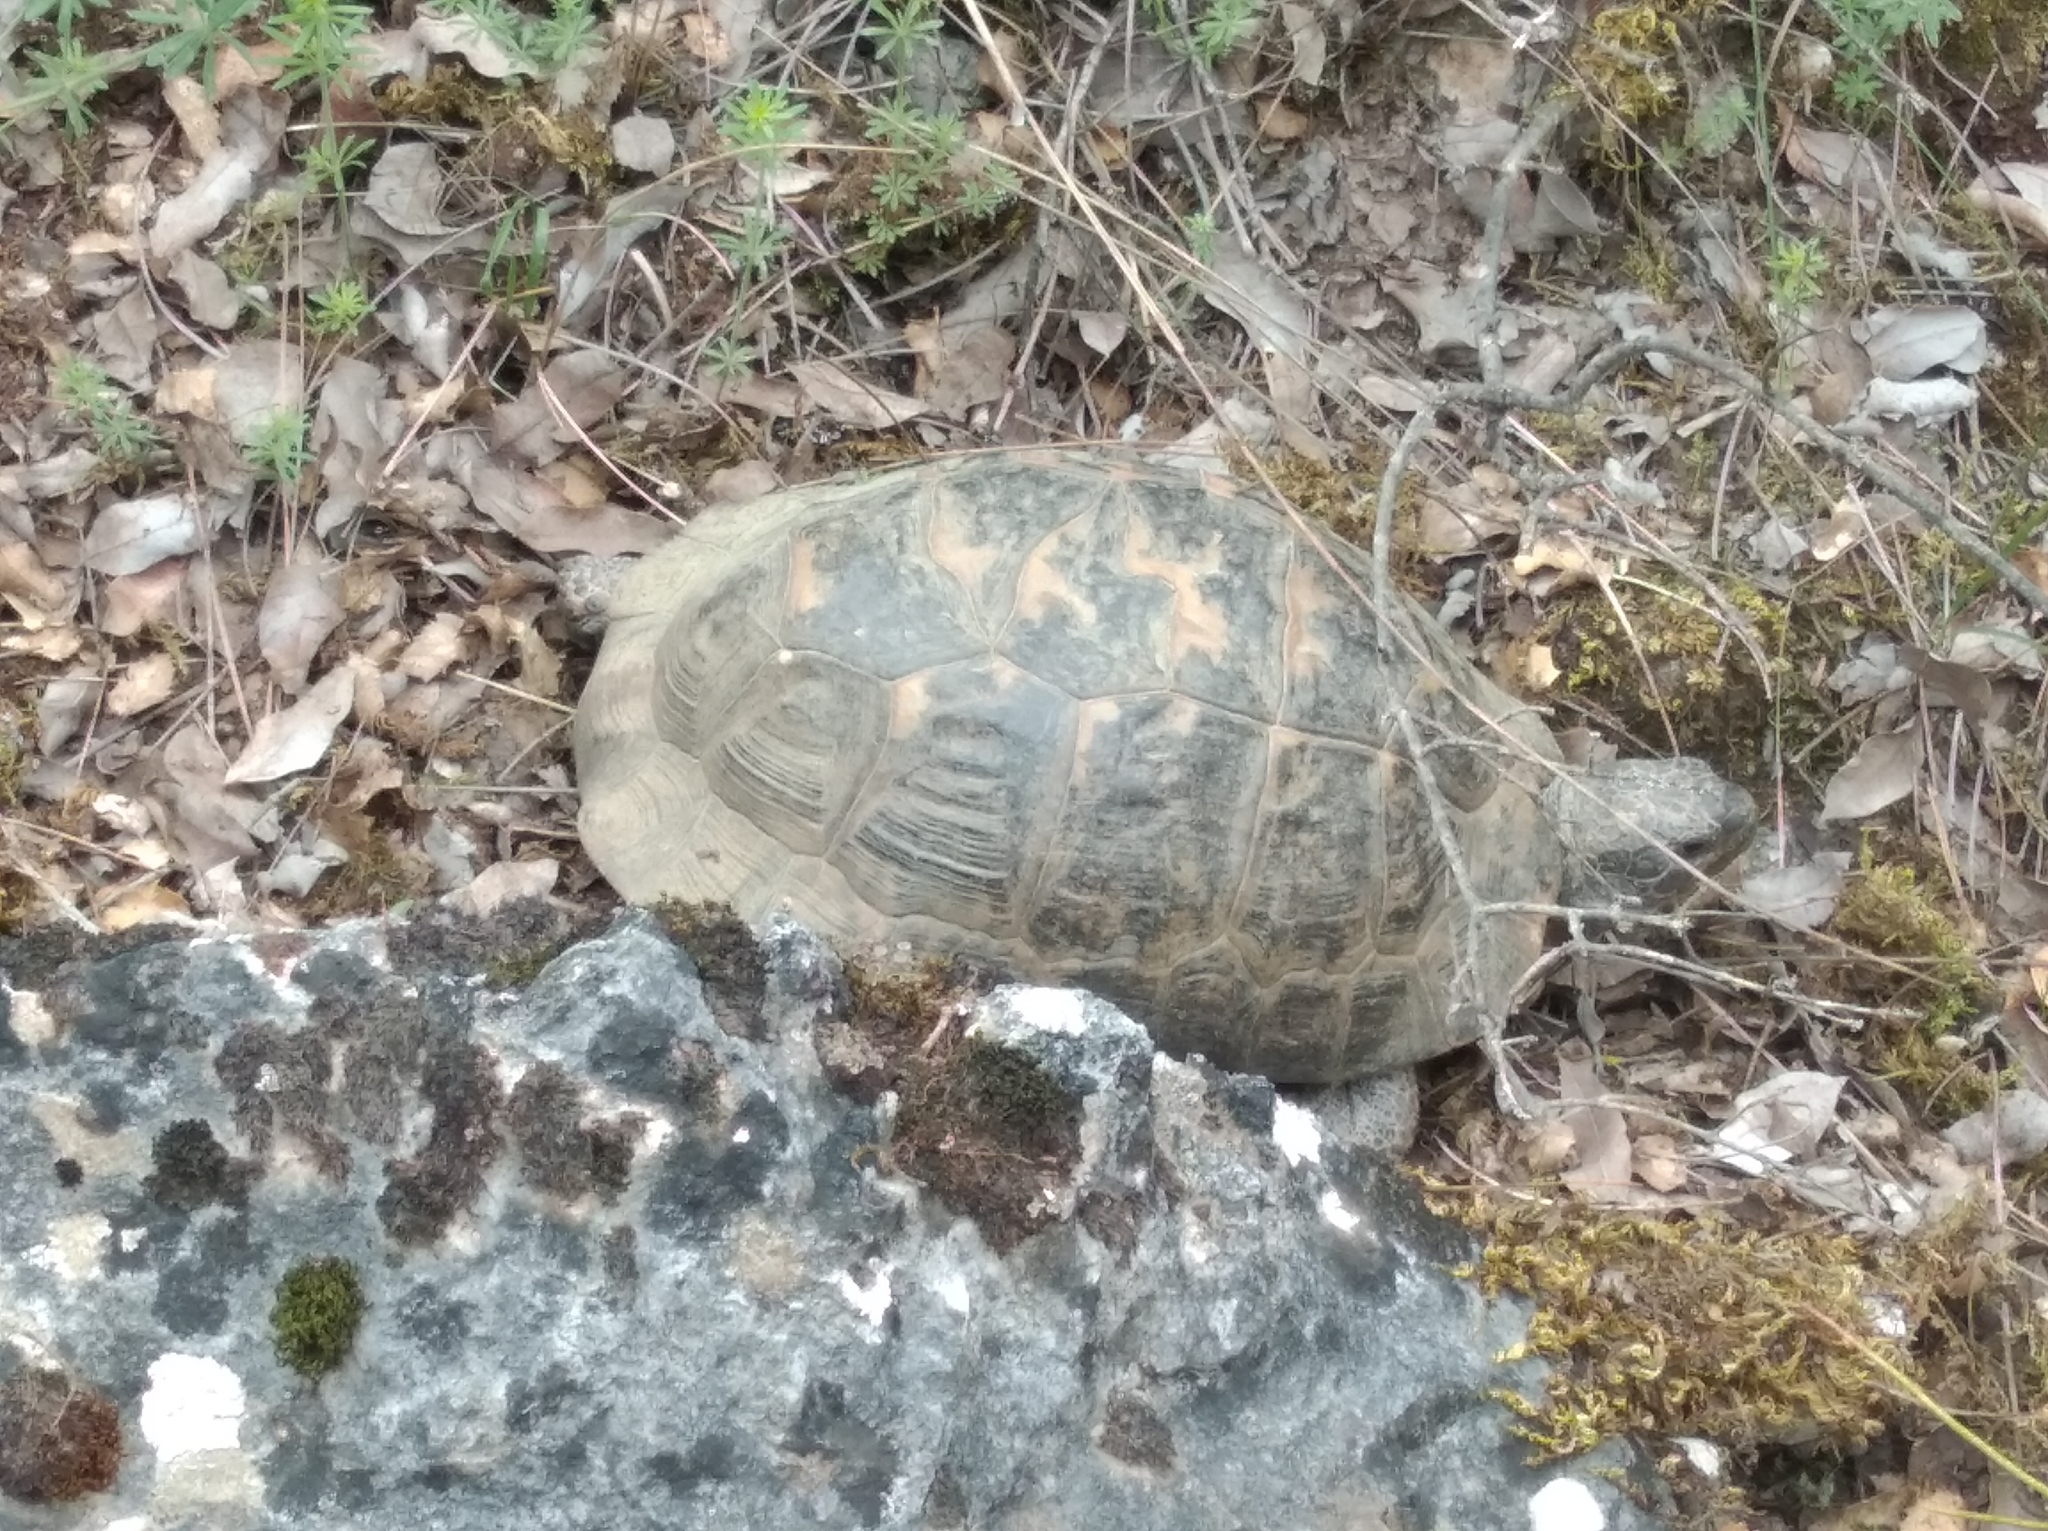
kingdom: Animalia
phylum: Chordata
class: Testudines
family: Testudinidae
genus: Testudo
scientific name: Testudo graeca
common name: Common tortoise
